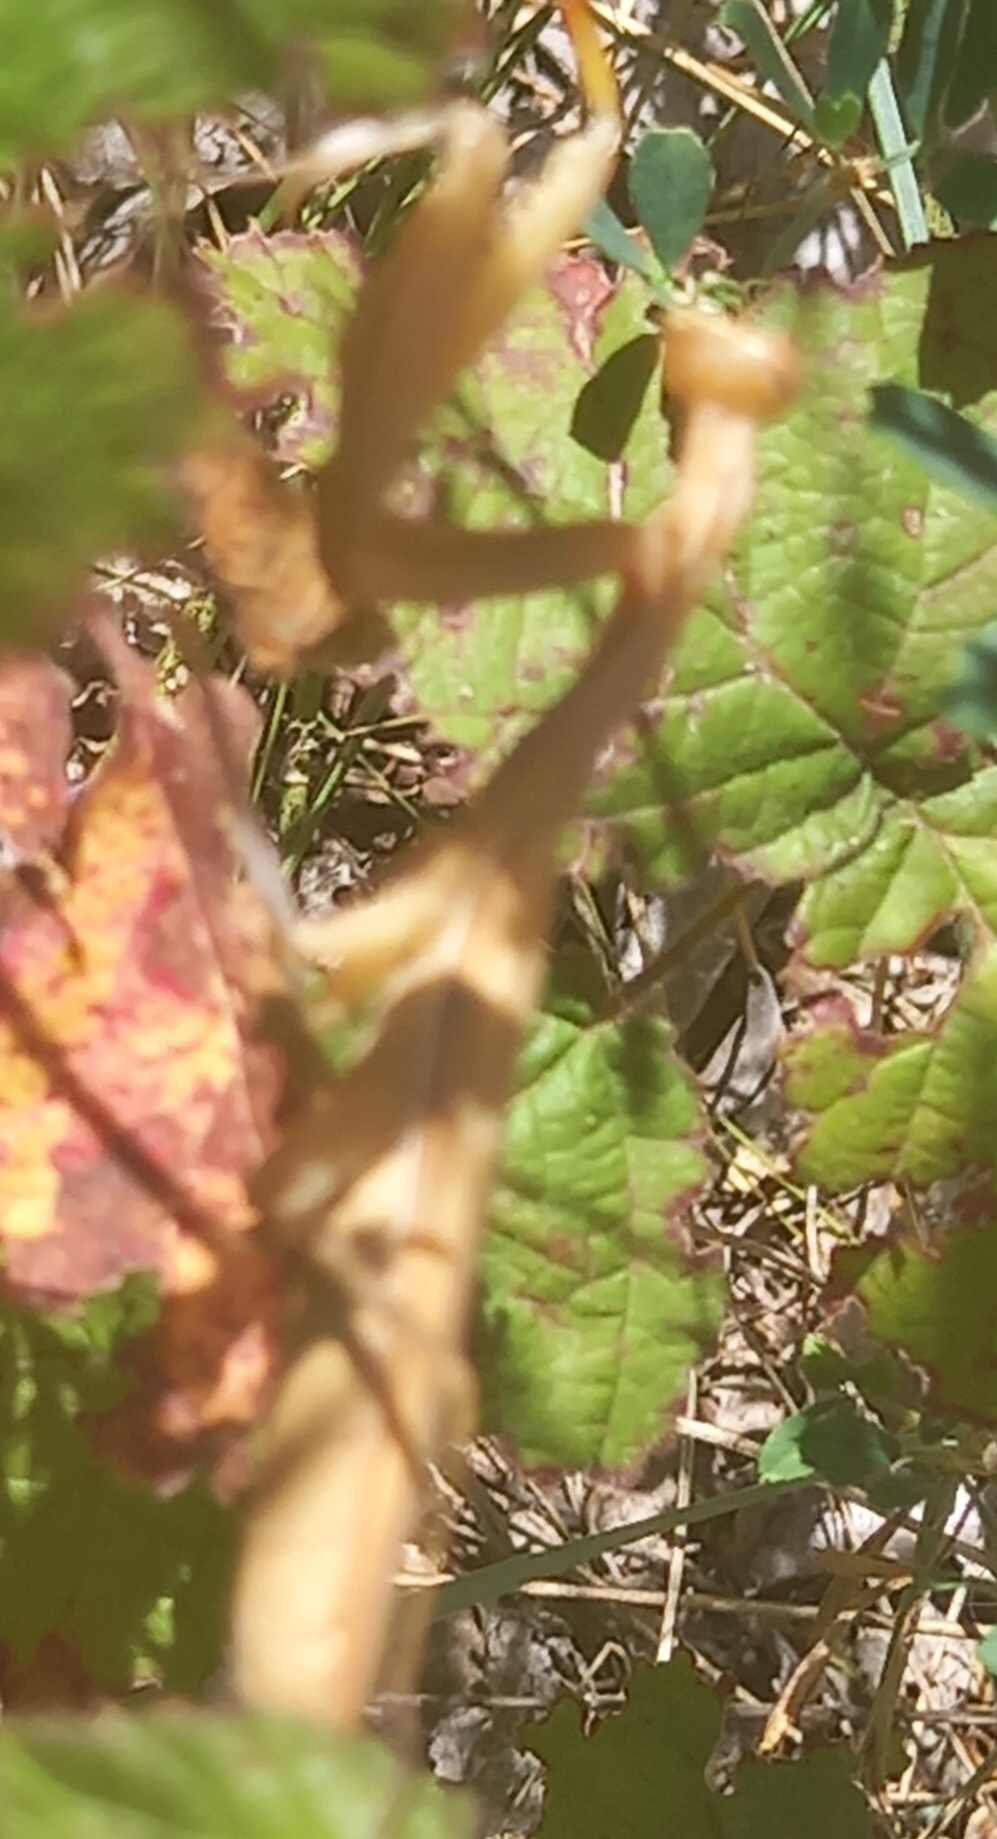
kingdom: Animalia
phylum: Arthropoda
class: Insecta
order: Mantodea
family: Mantidae
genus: Mantis
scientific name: Mantis religiosa
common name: Praying mantis
